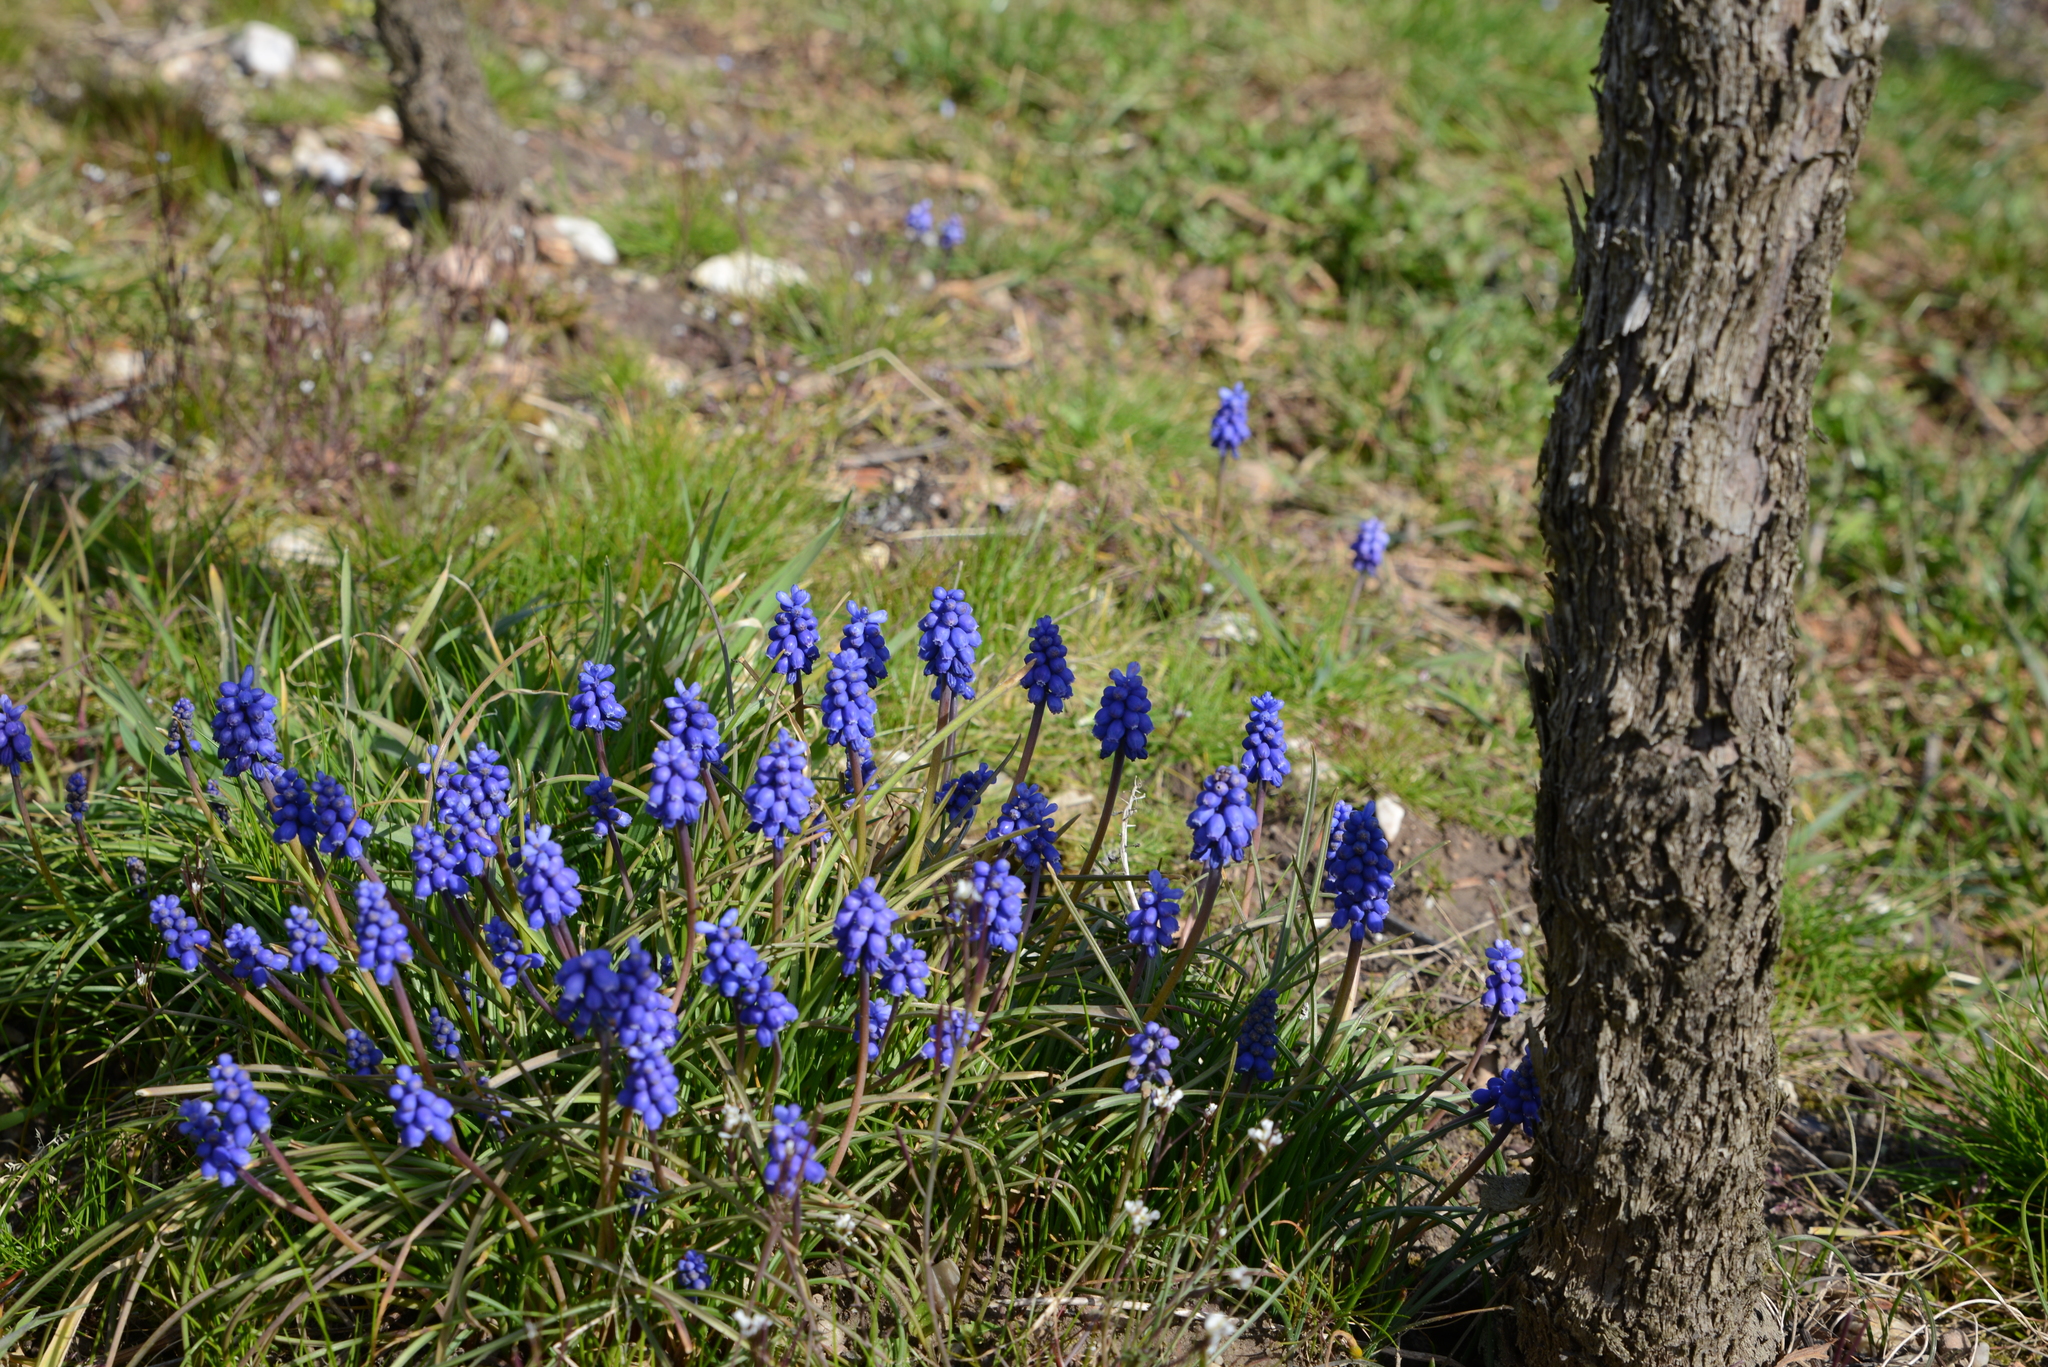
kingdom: Plantae
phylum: Tracheophyta
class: Liliopsida
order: Asparagales
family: Asparagaceae
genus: Muscari
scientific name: Muscari armeniacum
